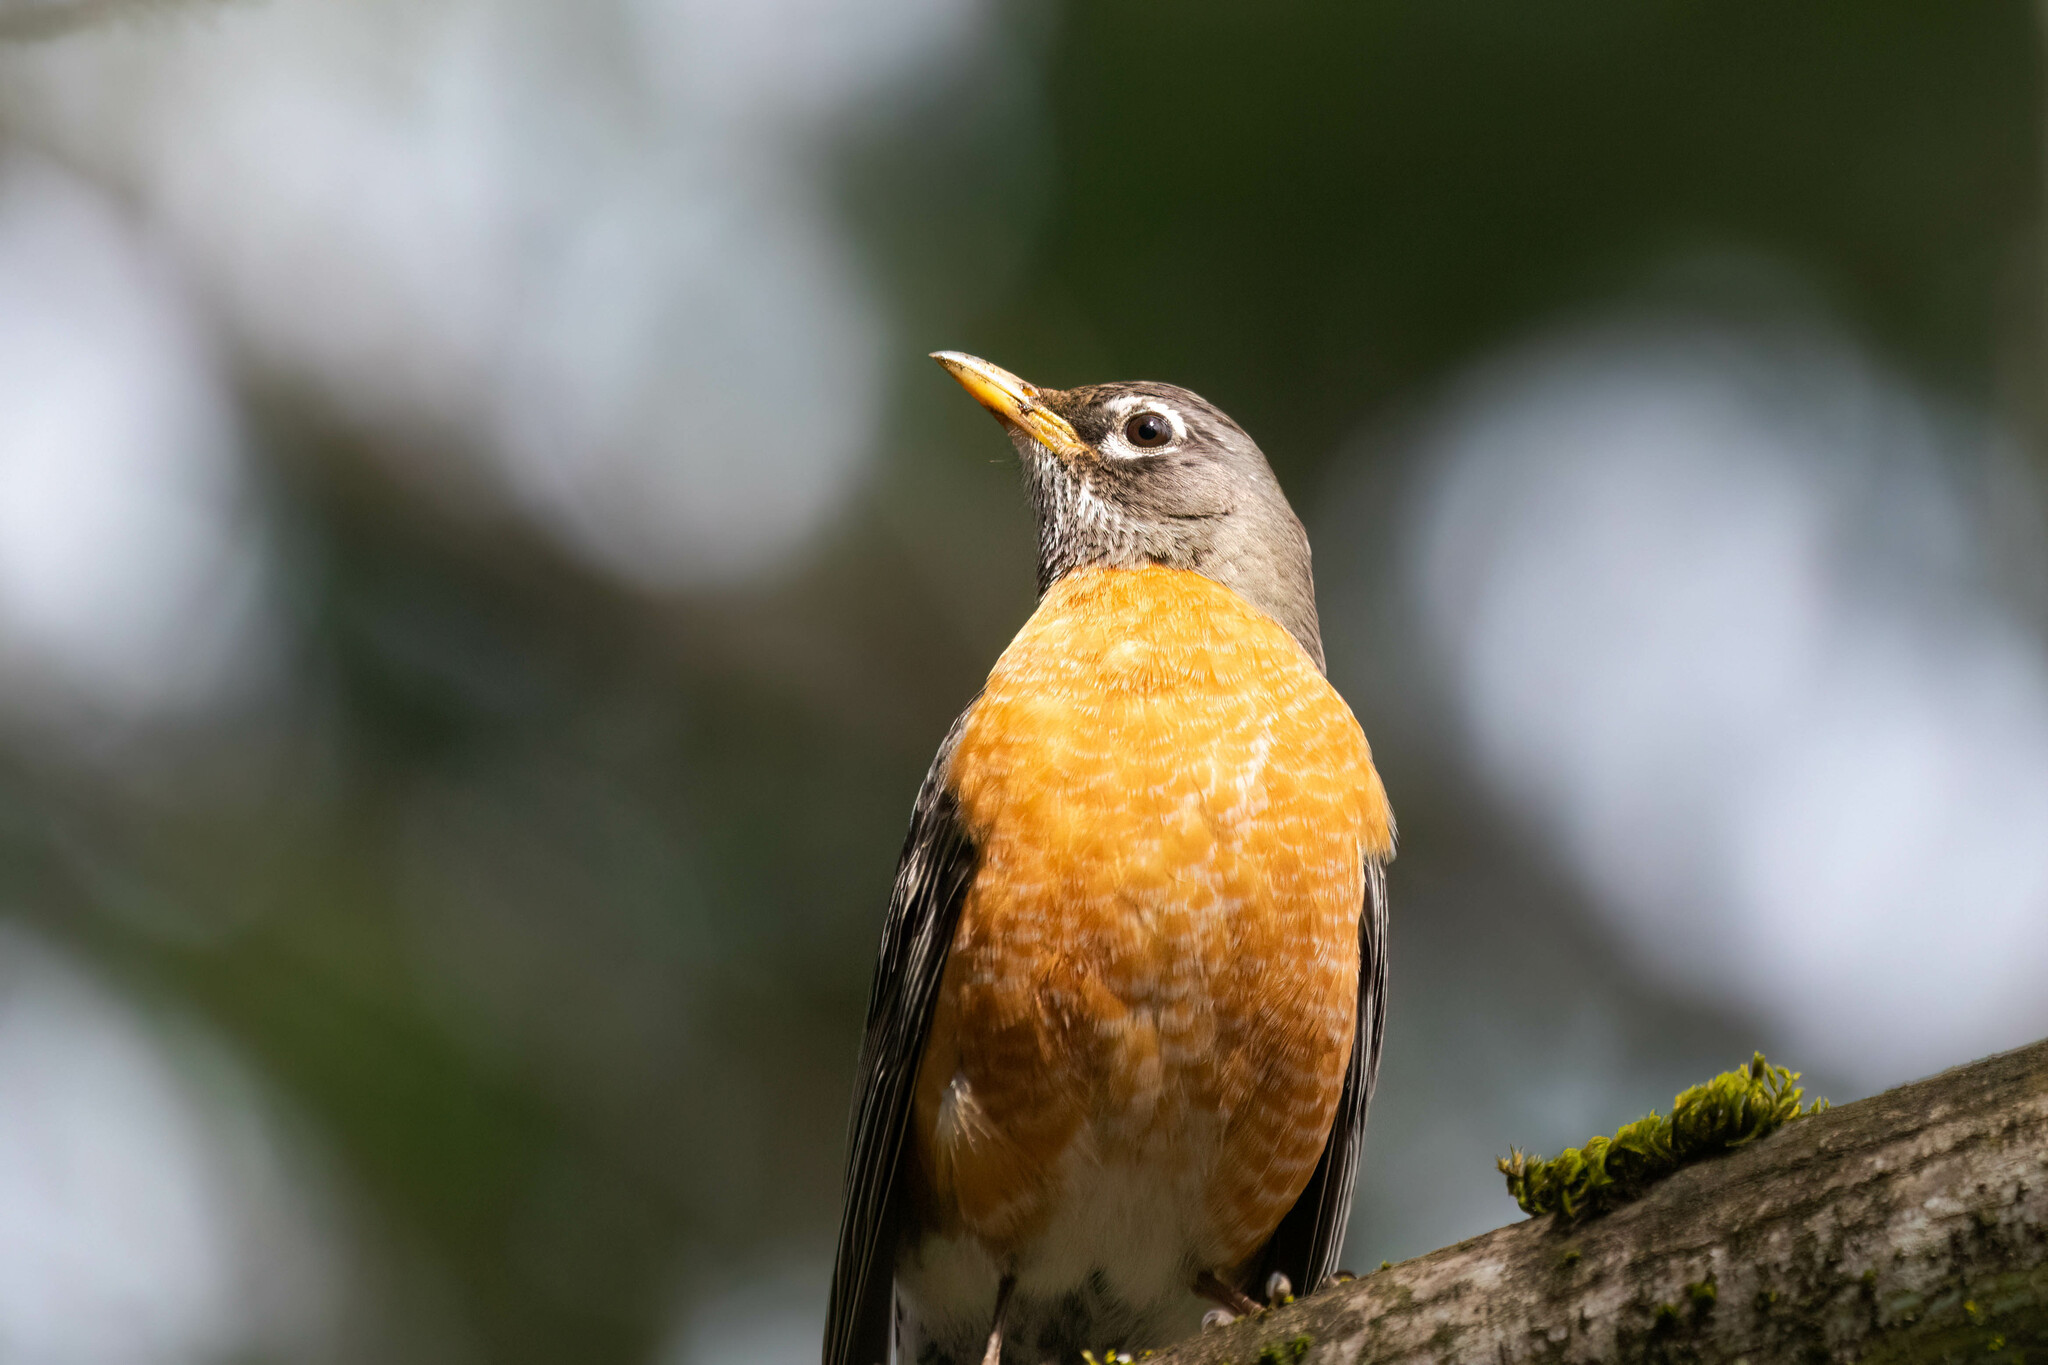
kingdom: Animalia
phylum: Chordata
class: Aves
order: Passeriformes
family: Turdidae
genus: Turdus
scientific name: Turdus migratorius
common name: American robin
